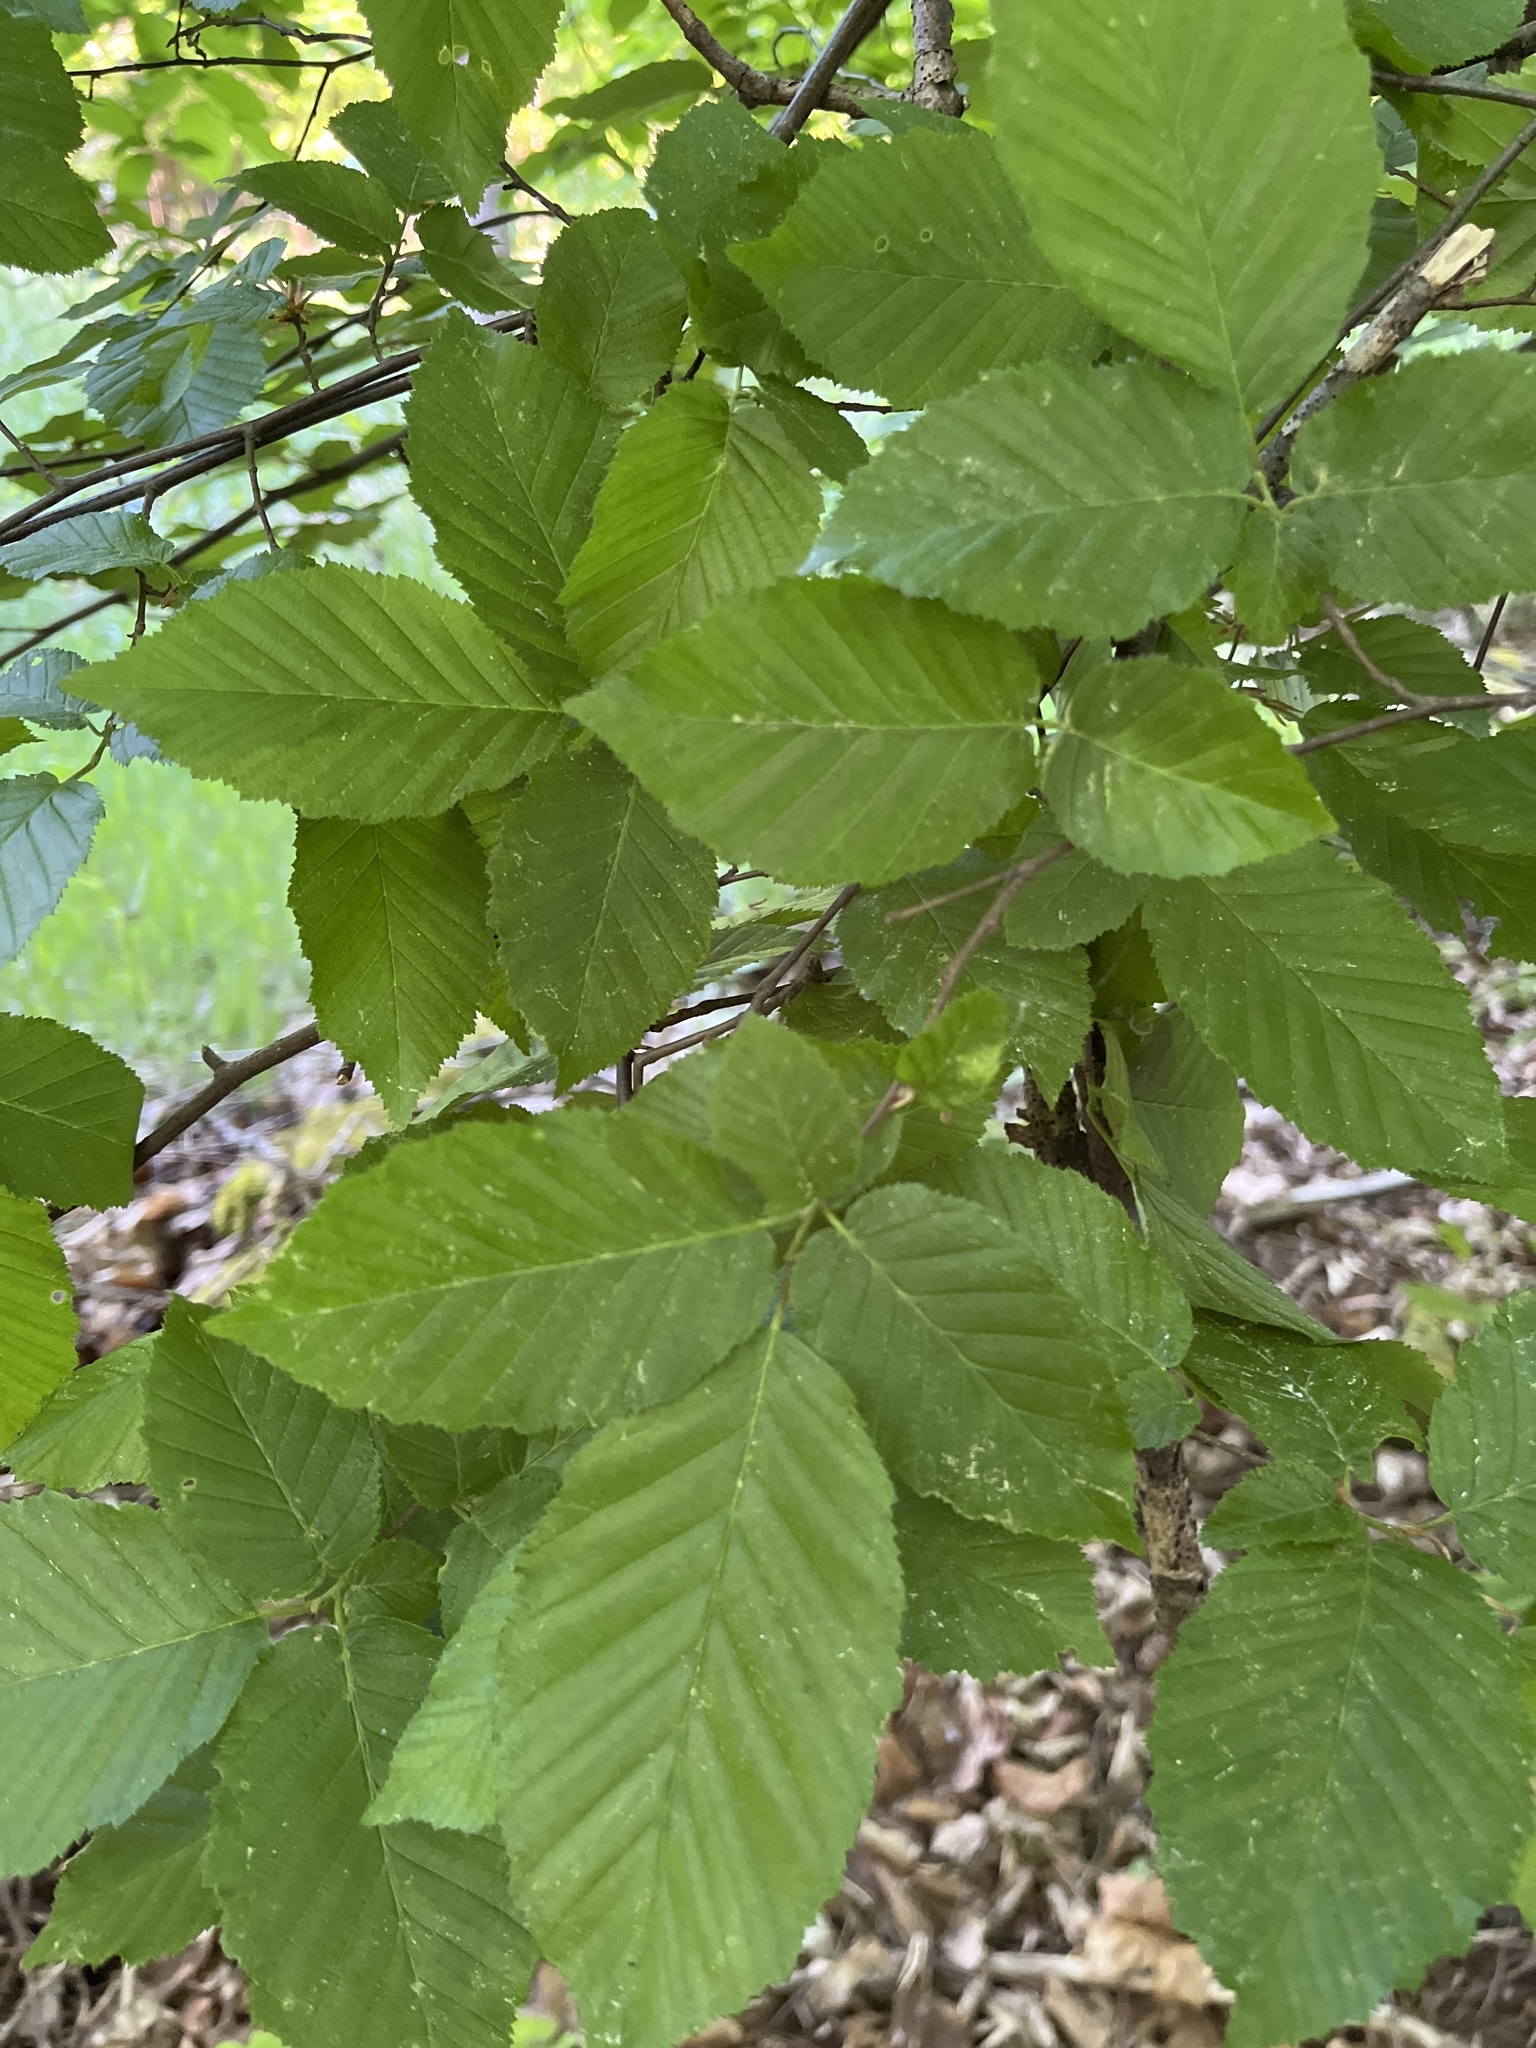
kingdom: Plantae
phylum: Tracheophyta
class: Magnoliopsida
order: Fagales
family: Betulaceae
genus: Carpinus
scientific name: Carpinus betulus
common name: Hornbeam
